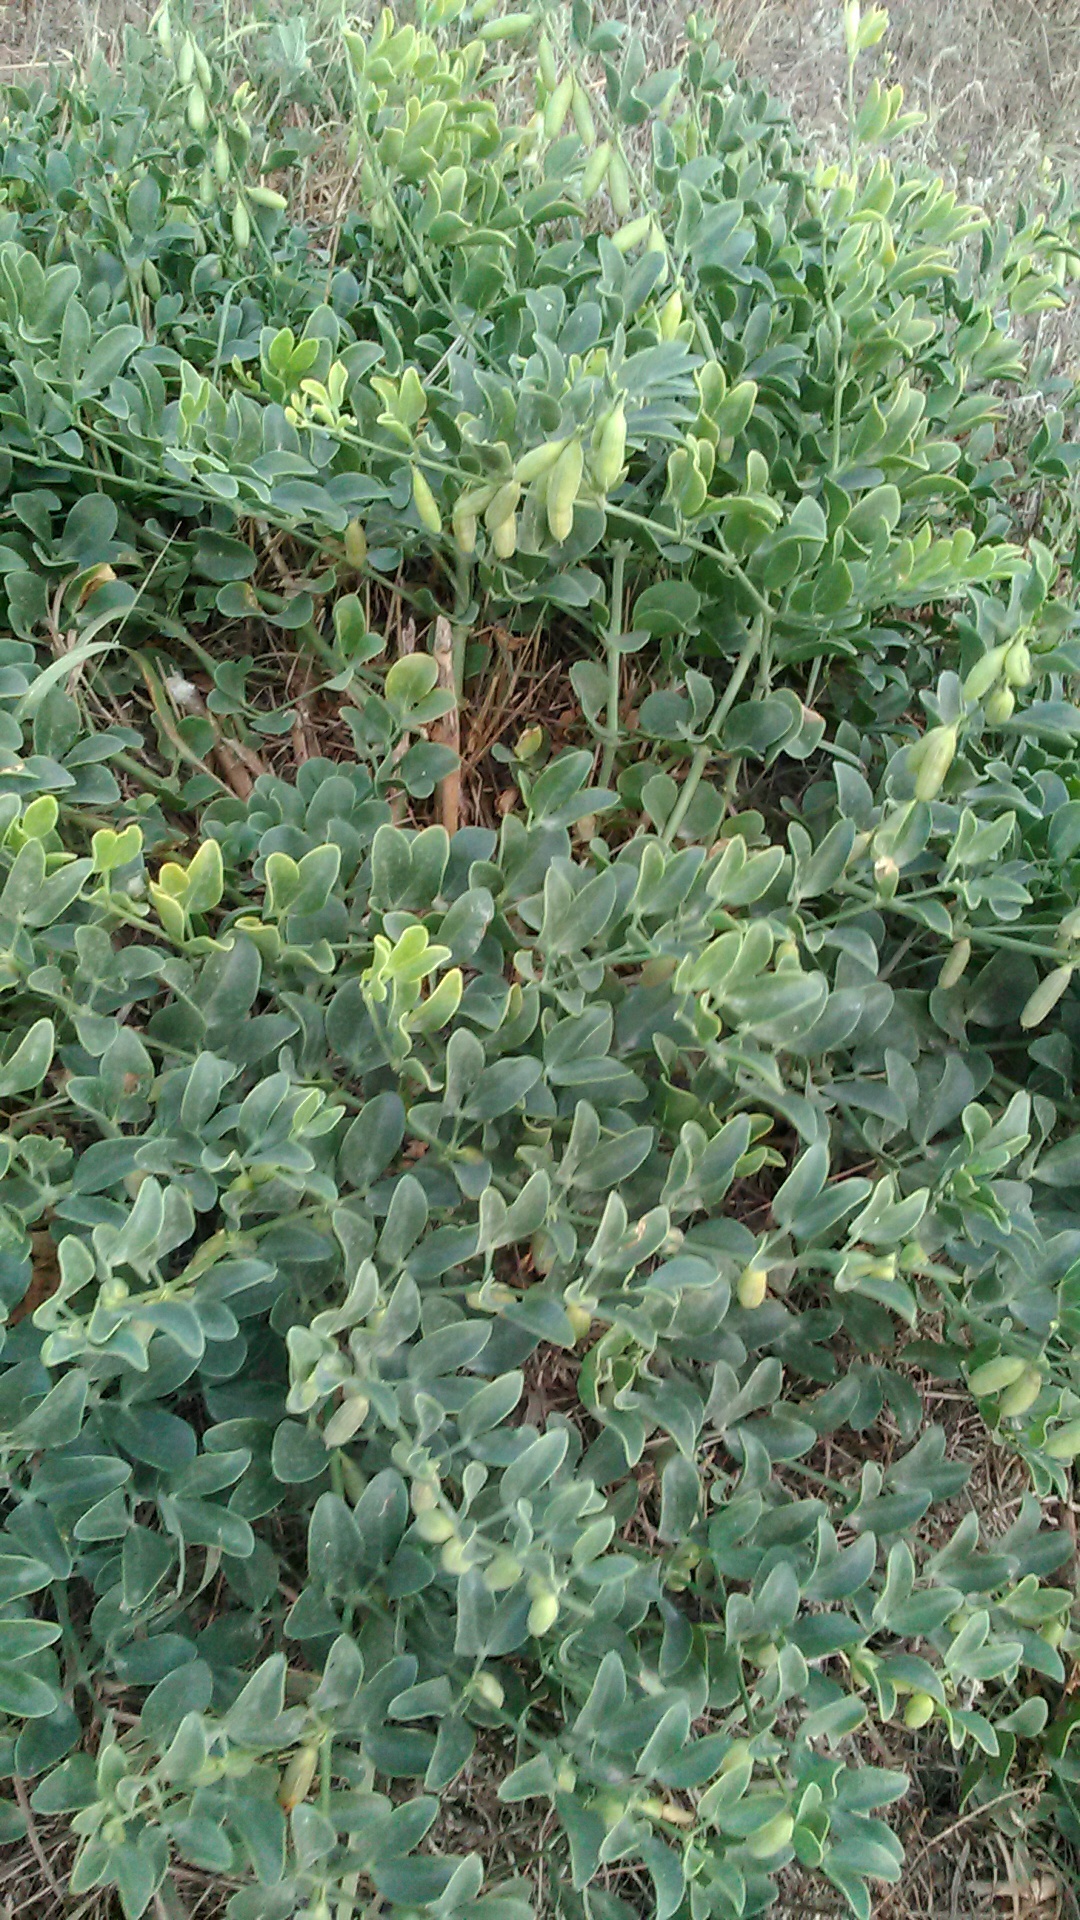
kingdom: Plantae
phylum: Tracheophyta
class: Magnoliopsida
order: Zygophyllales
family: Zygophyllaceae
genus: Zygophyllum
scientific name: Zygophyllum fabago
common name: Syrian beancaper
